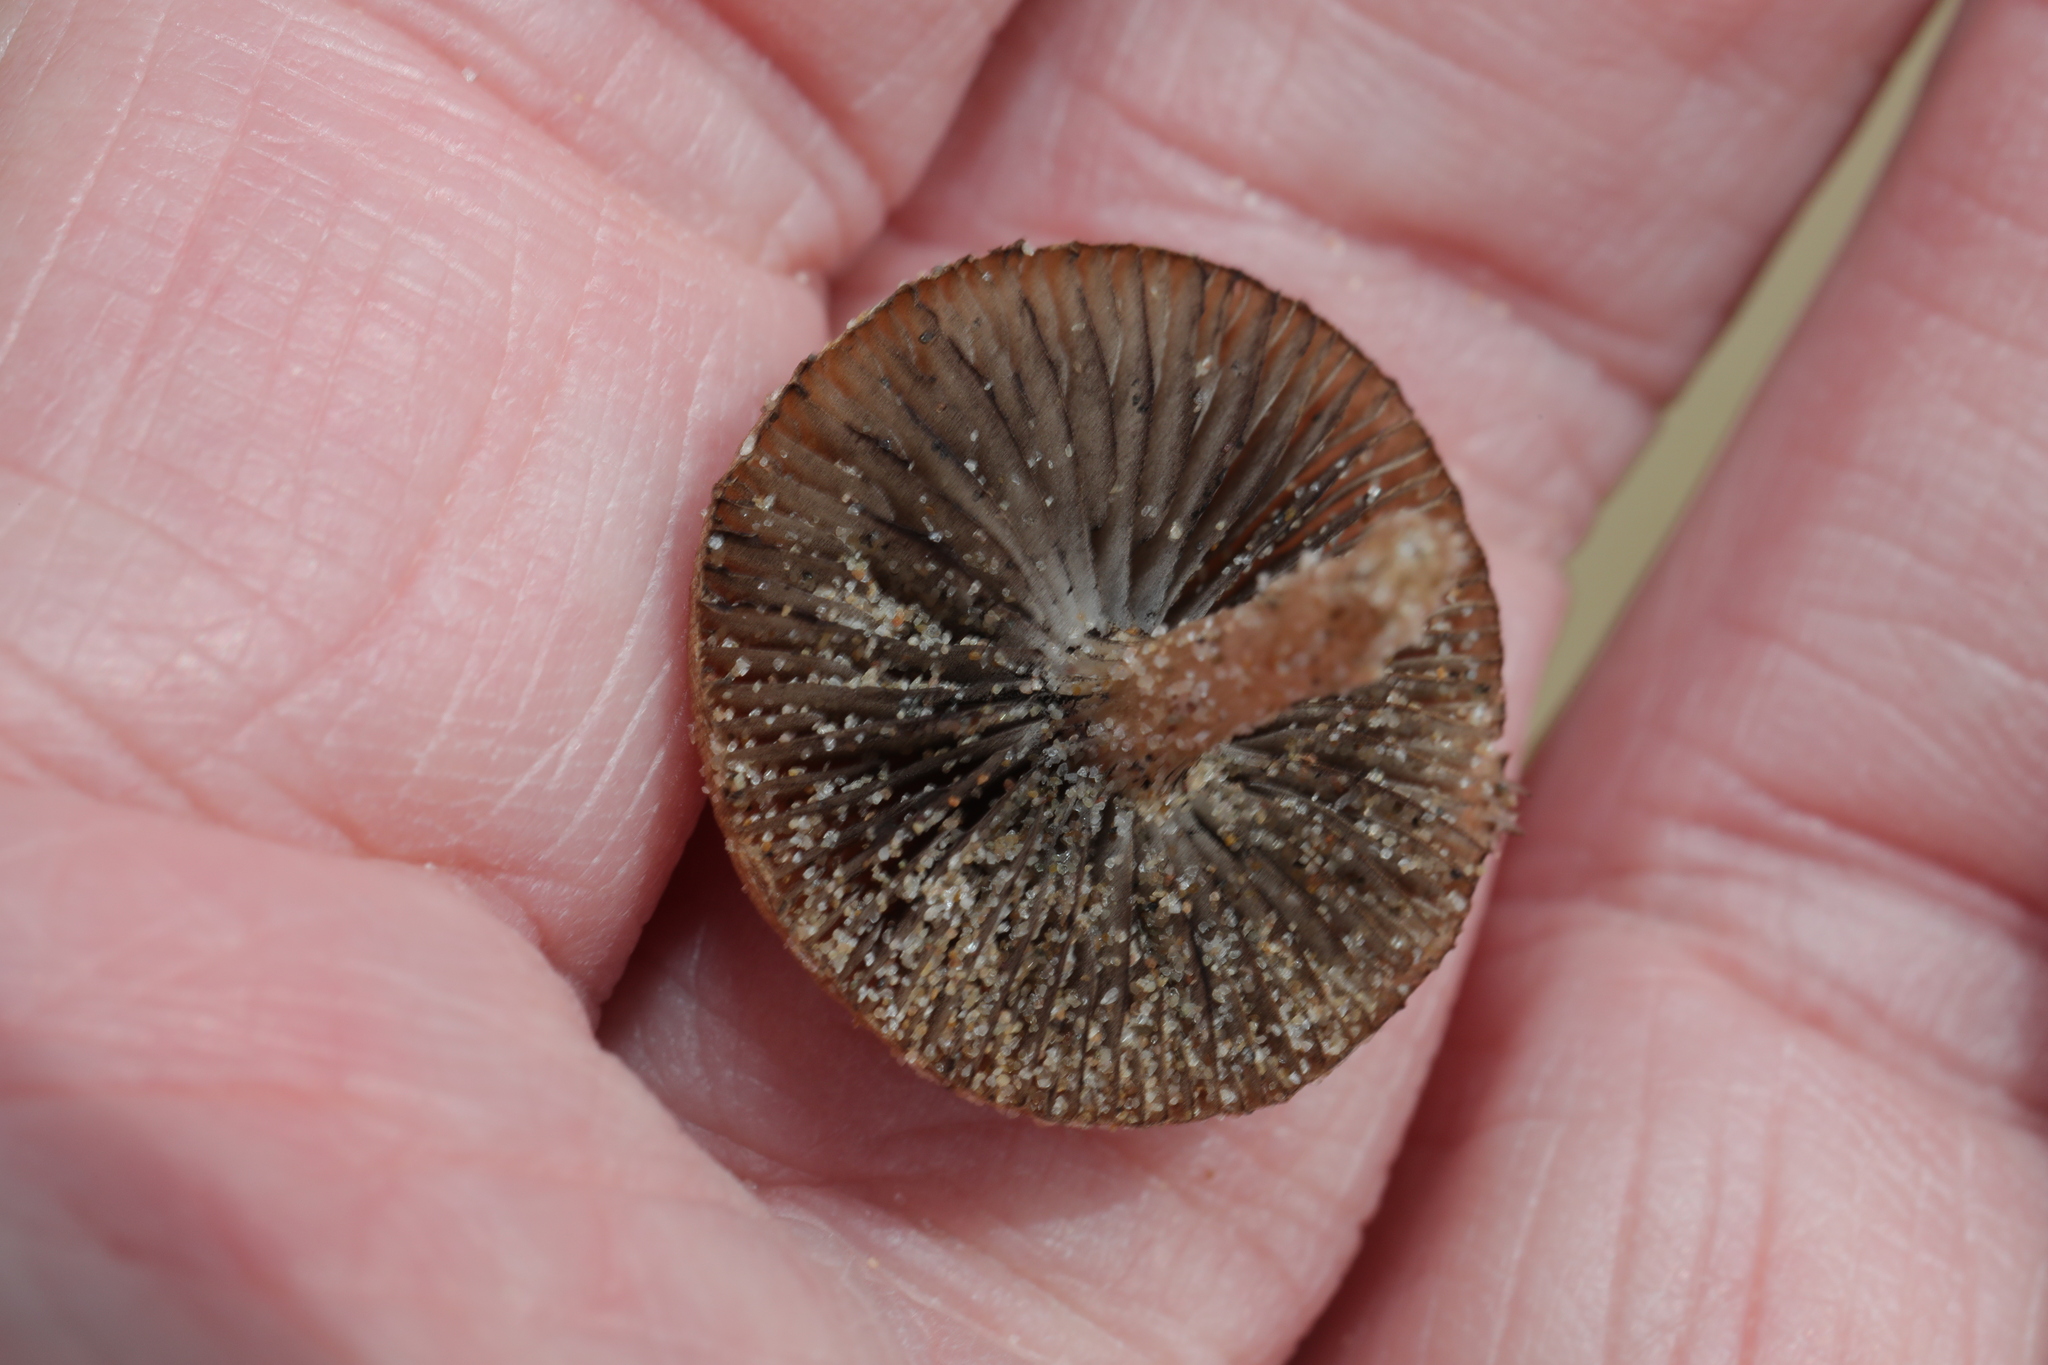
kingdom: Fungi
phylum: Basidiomycota
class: Agaricomycetes
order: Agaricales
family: Psathyrellaceae
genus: Psathyrella
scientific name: Psathyrella ammophila
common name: Dune brittlestem
